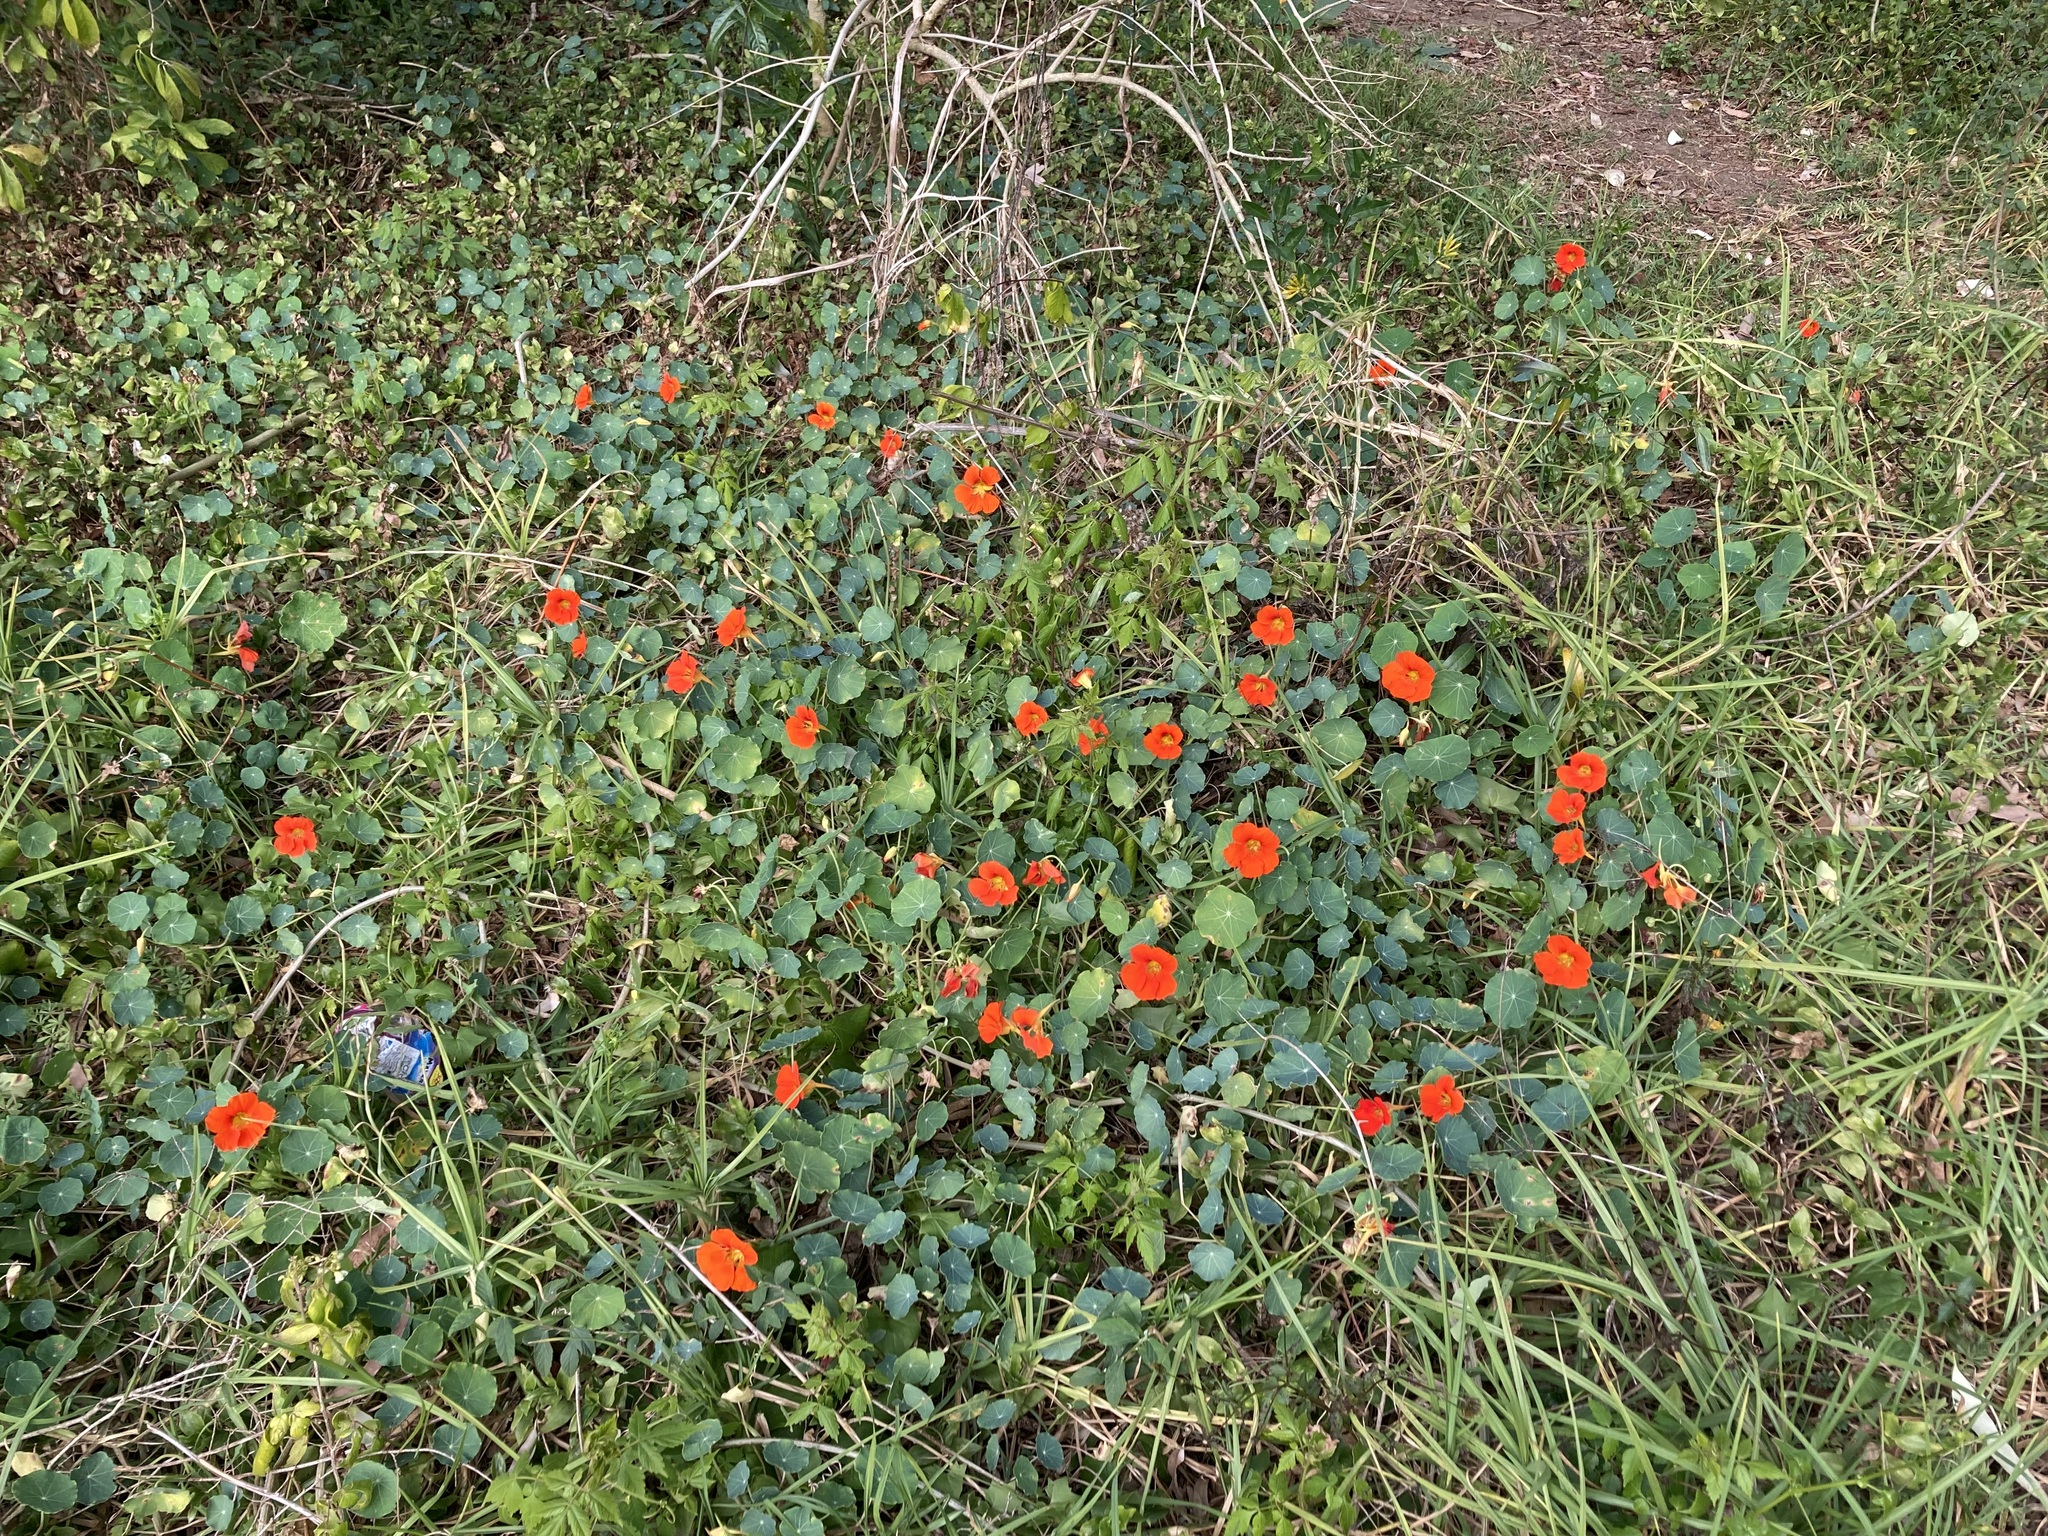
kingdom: Plantae
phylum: Tracheophyta
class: Magnoliopsida
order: Brassicales
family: Tropaeolaceae
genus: Tropaeolum
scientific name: Tropaeolum majus
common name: Nasturtium
